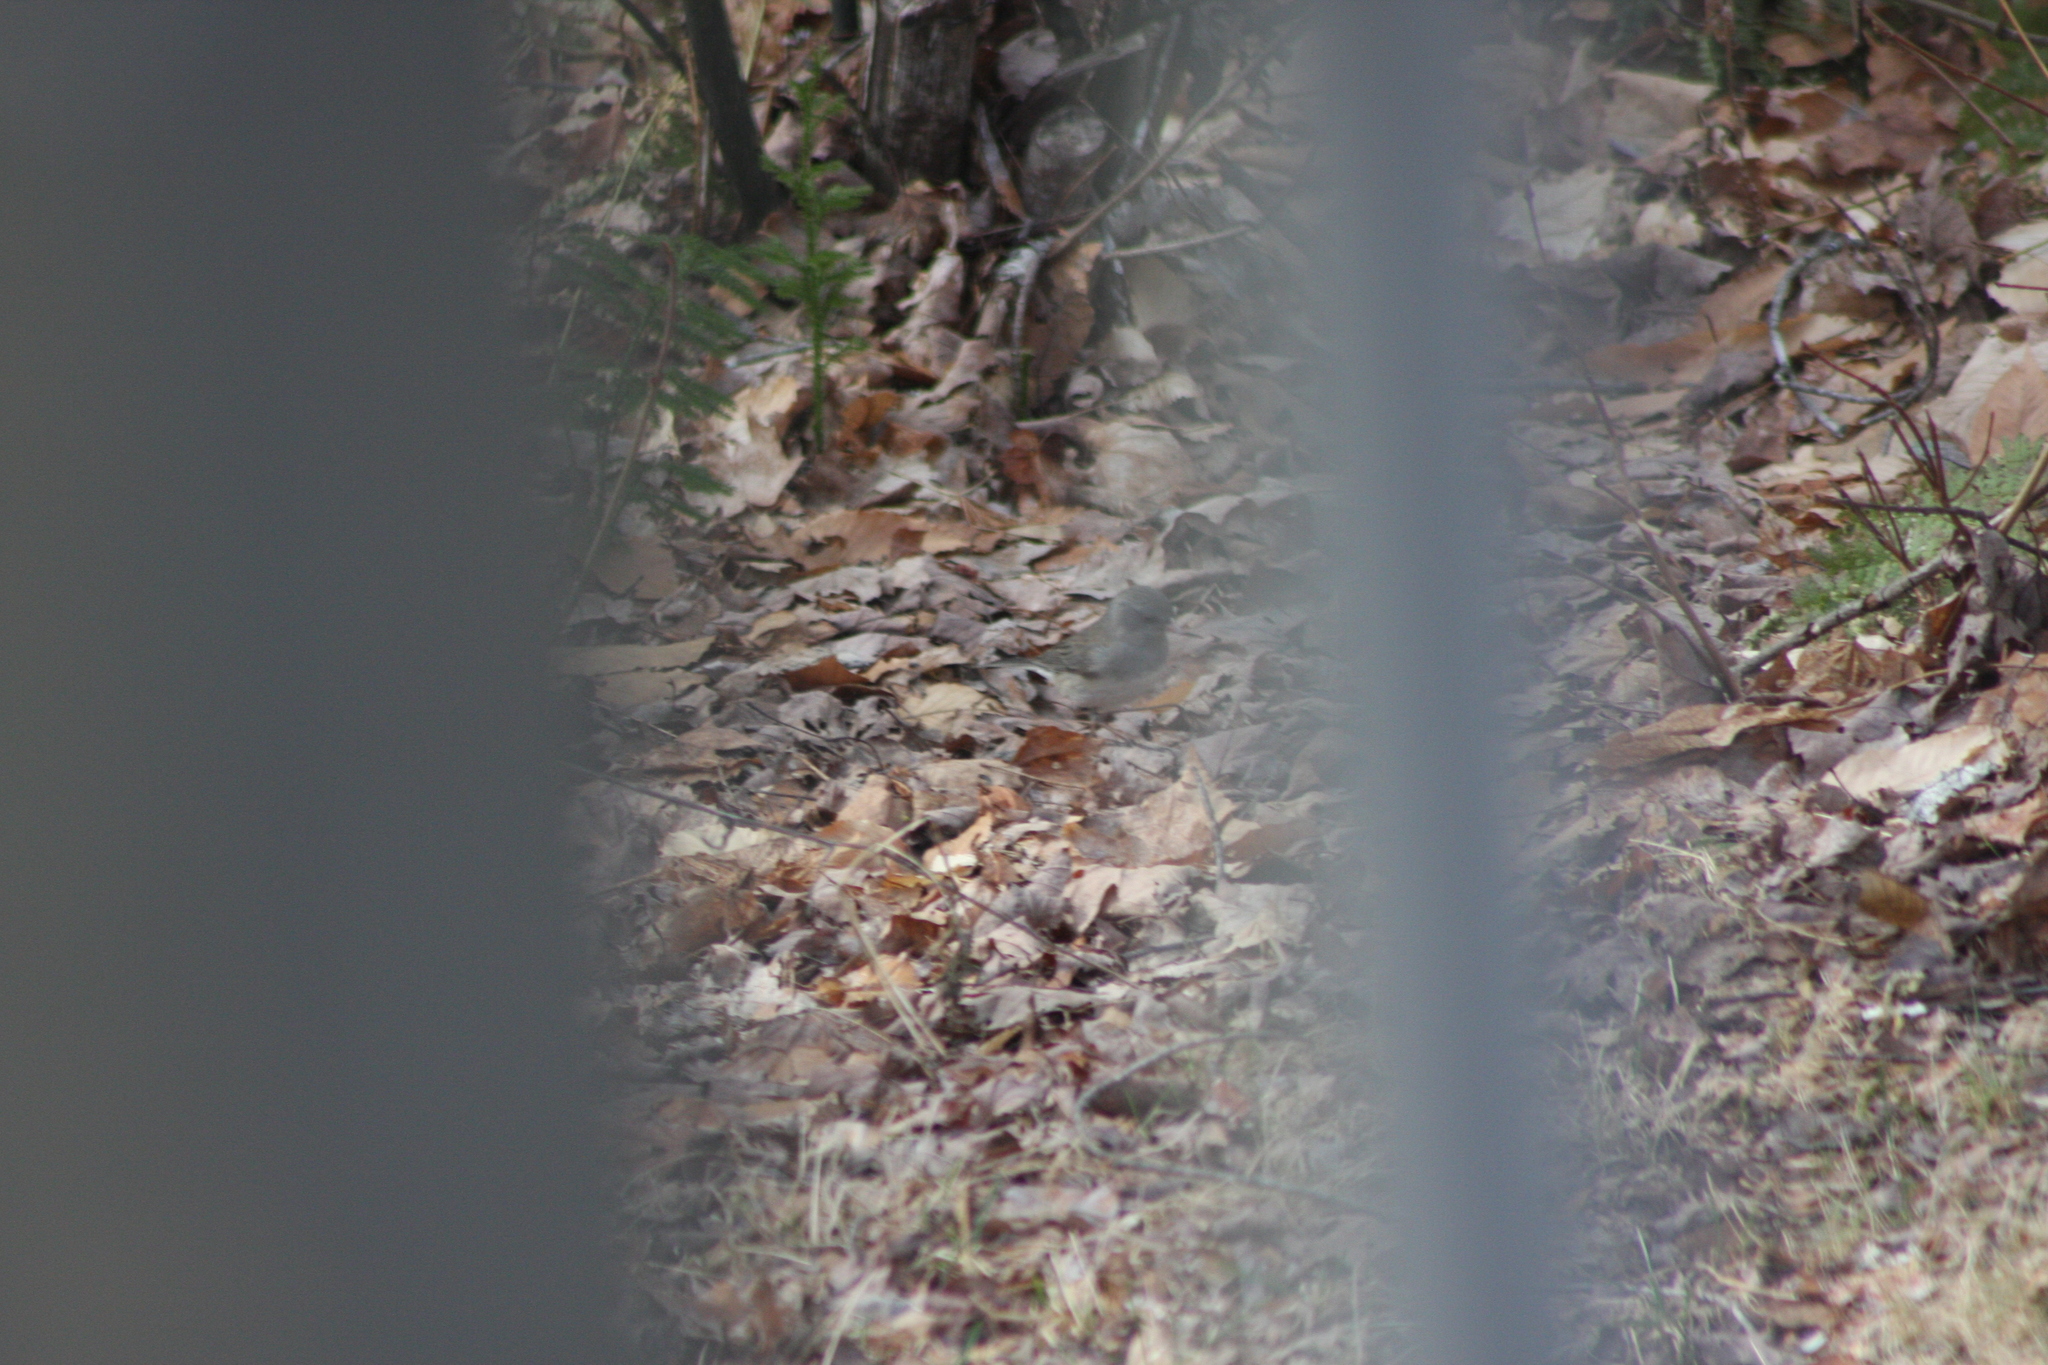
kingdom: Animalia
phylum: Chordata
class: Aves
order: Passeriformes
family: Passerellidae
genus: Junco
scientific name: Junco hyemalis
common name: Dark-eyed junco
